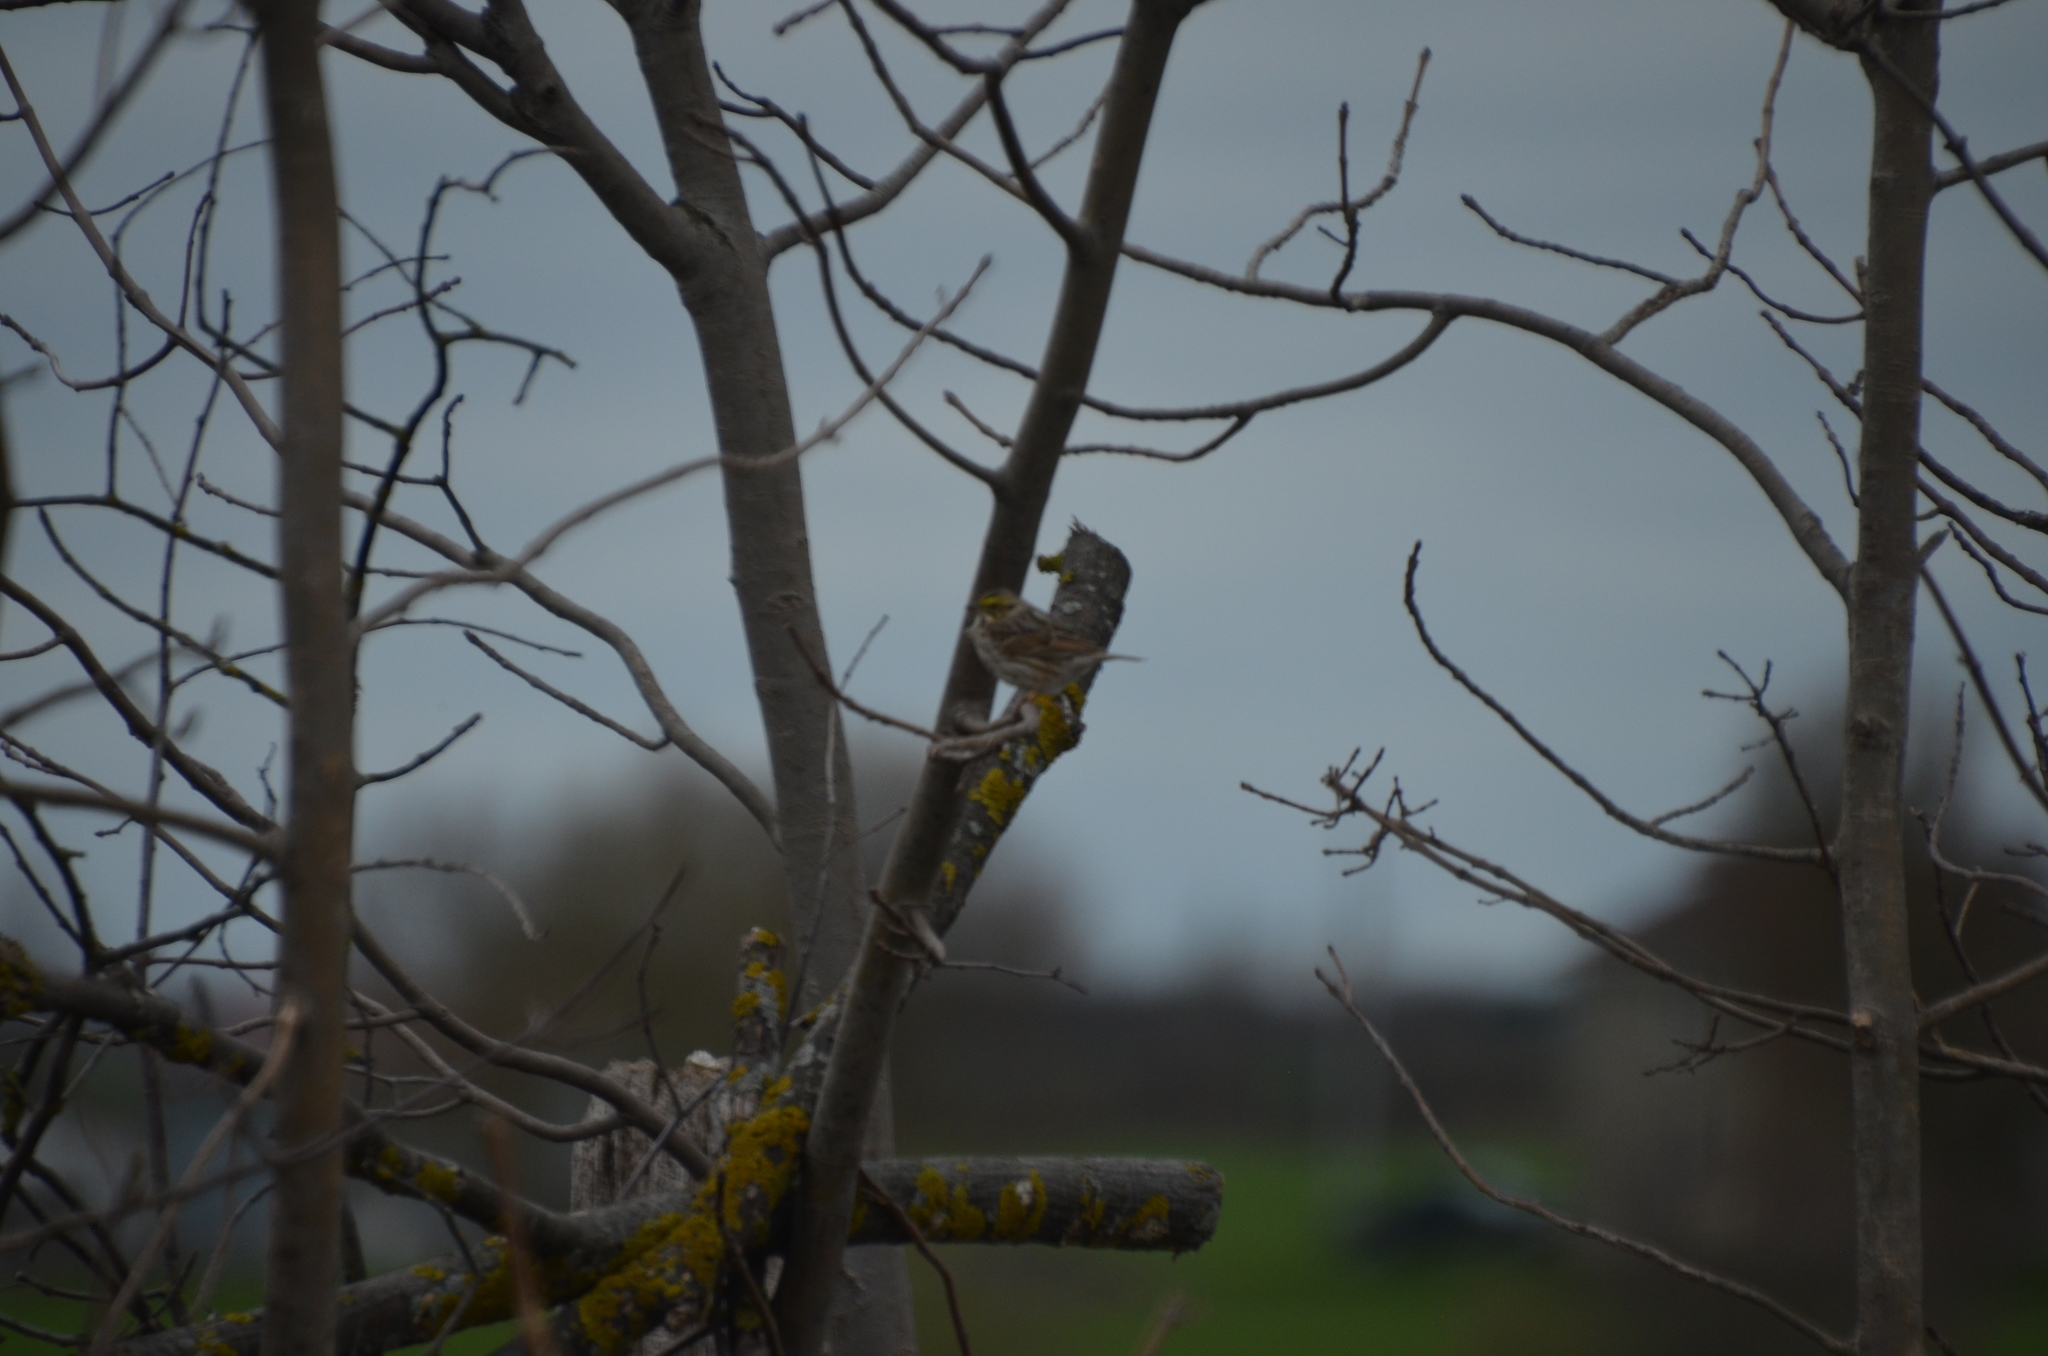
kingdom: Animalia
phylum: Chordata
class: Aves
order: Passeriformes
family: Passerellidae
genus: Passerculus
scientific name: Passerculus sandwichensis
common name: Savannah sparrow
